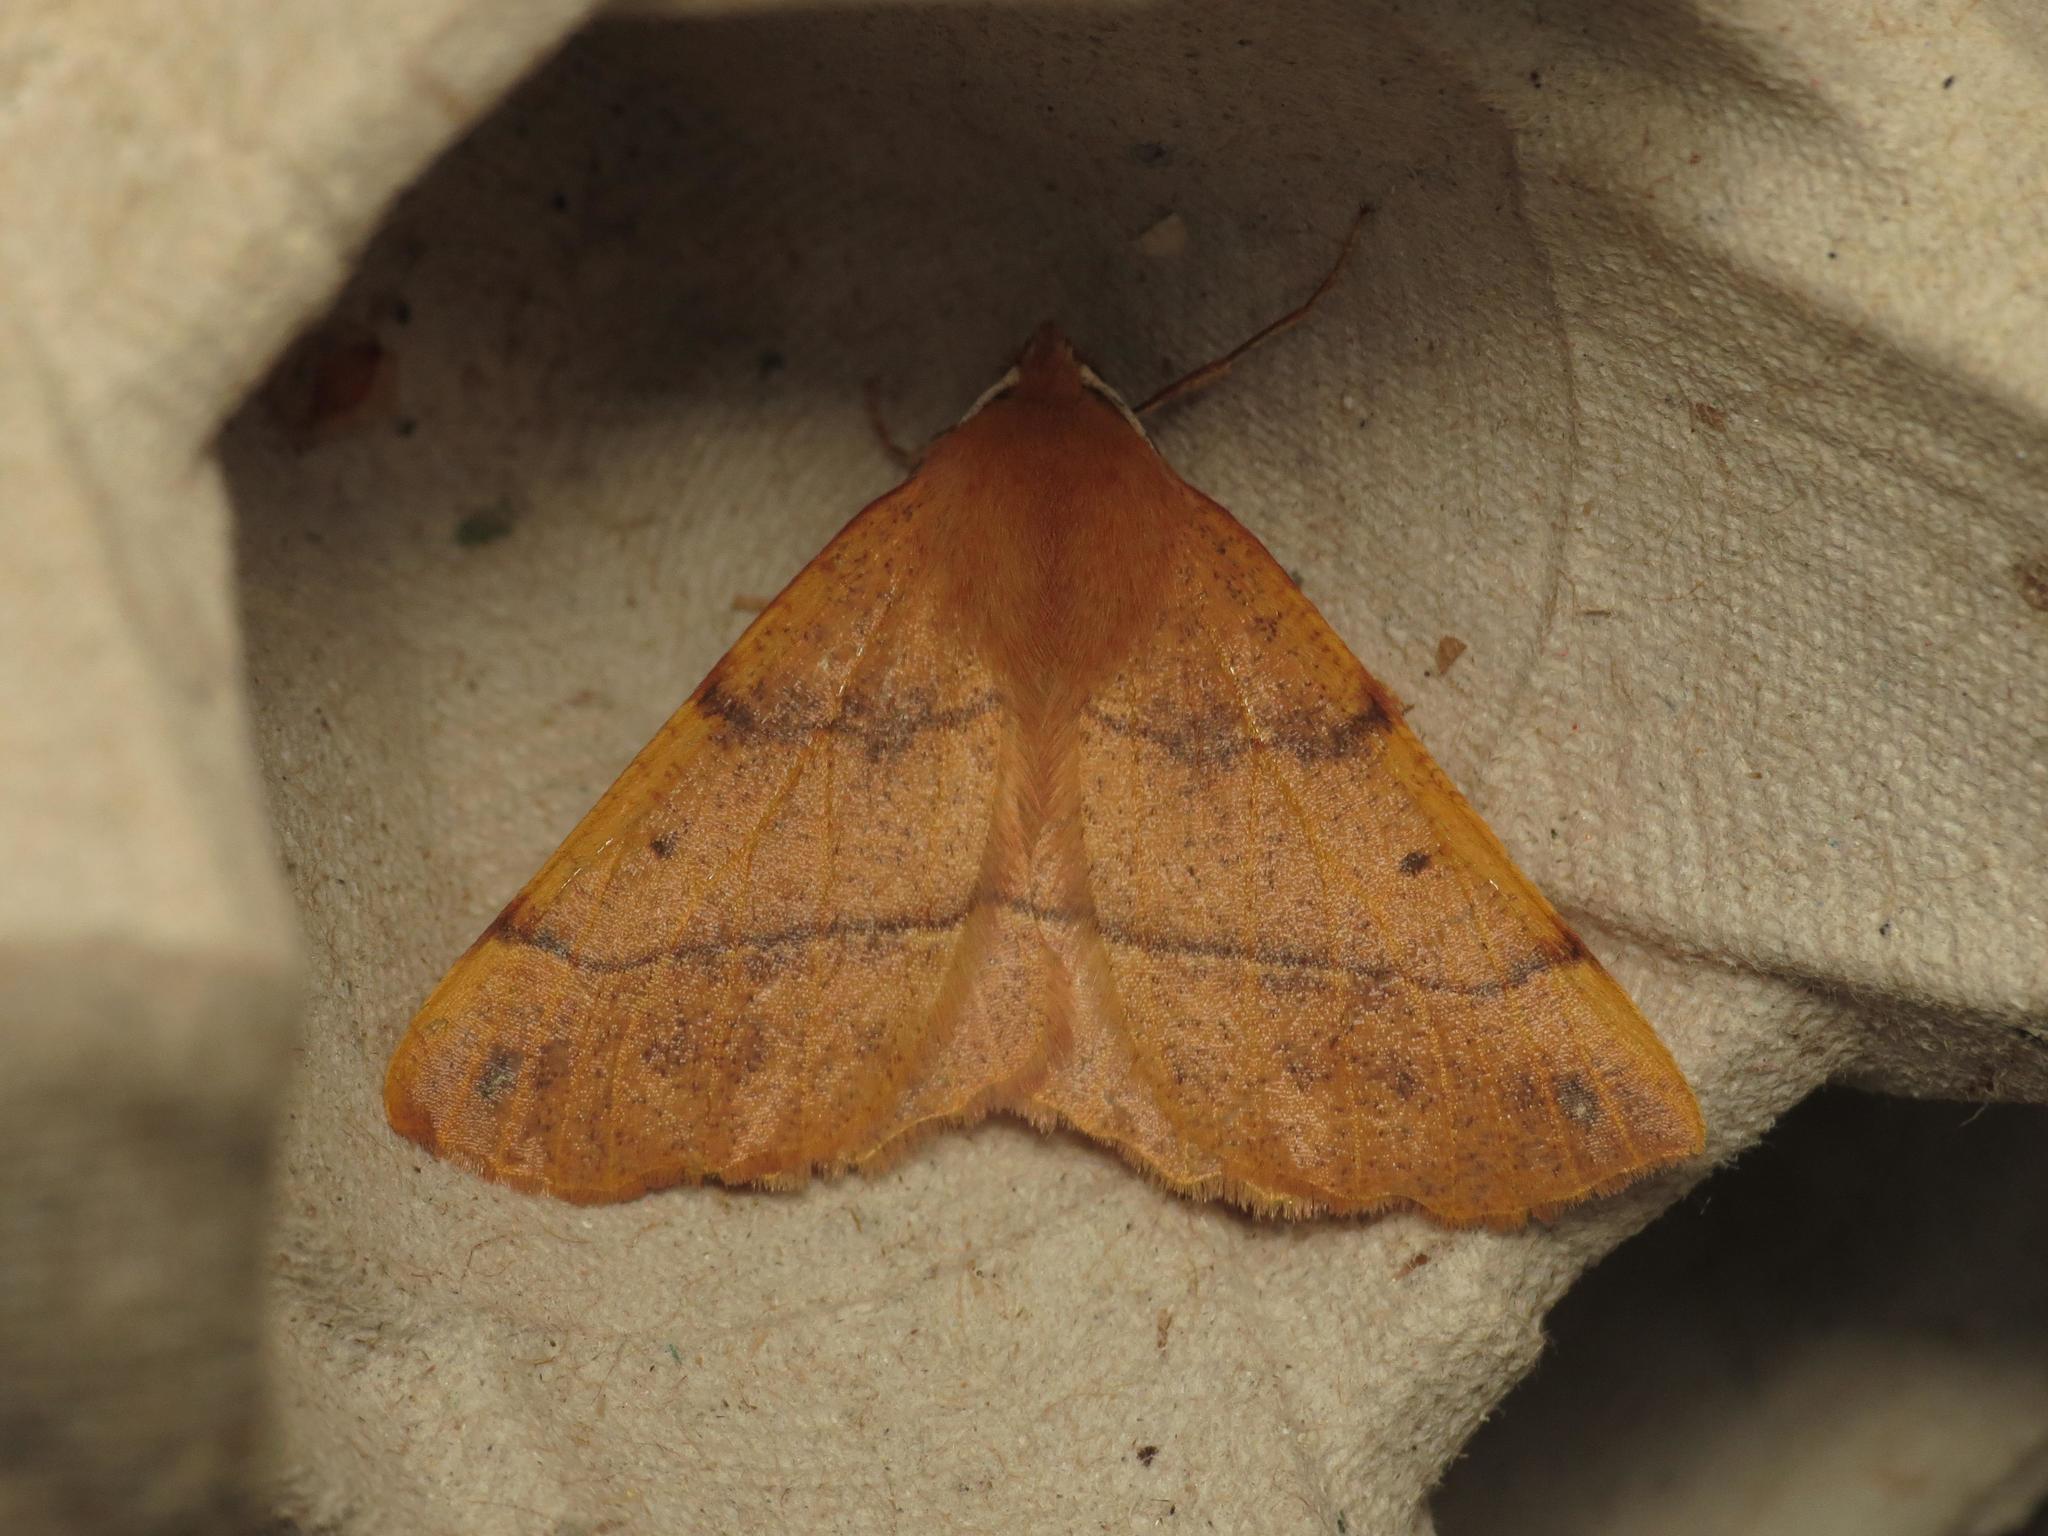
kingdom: Animalia
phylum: Arthropoda
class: Insecta
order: Lepidoptera
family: Geometridae
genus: Colotois
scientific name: Colotois pennaria
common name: Feathered thorn
